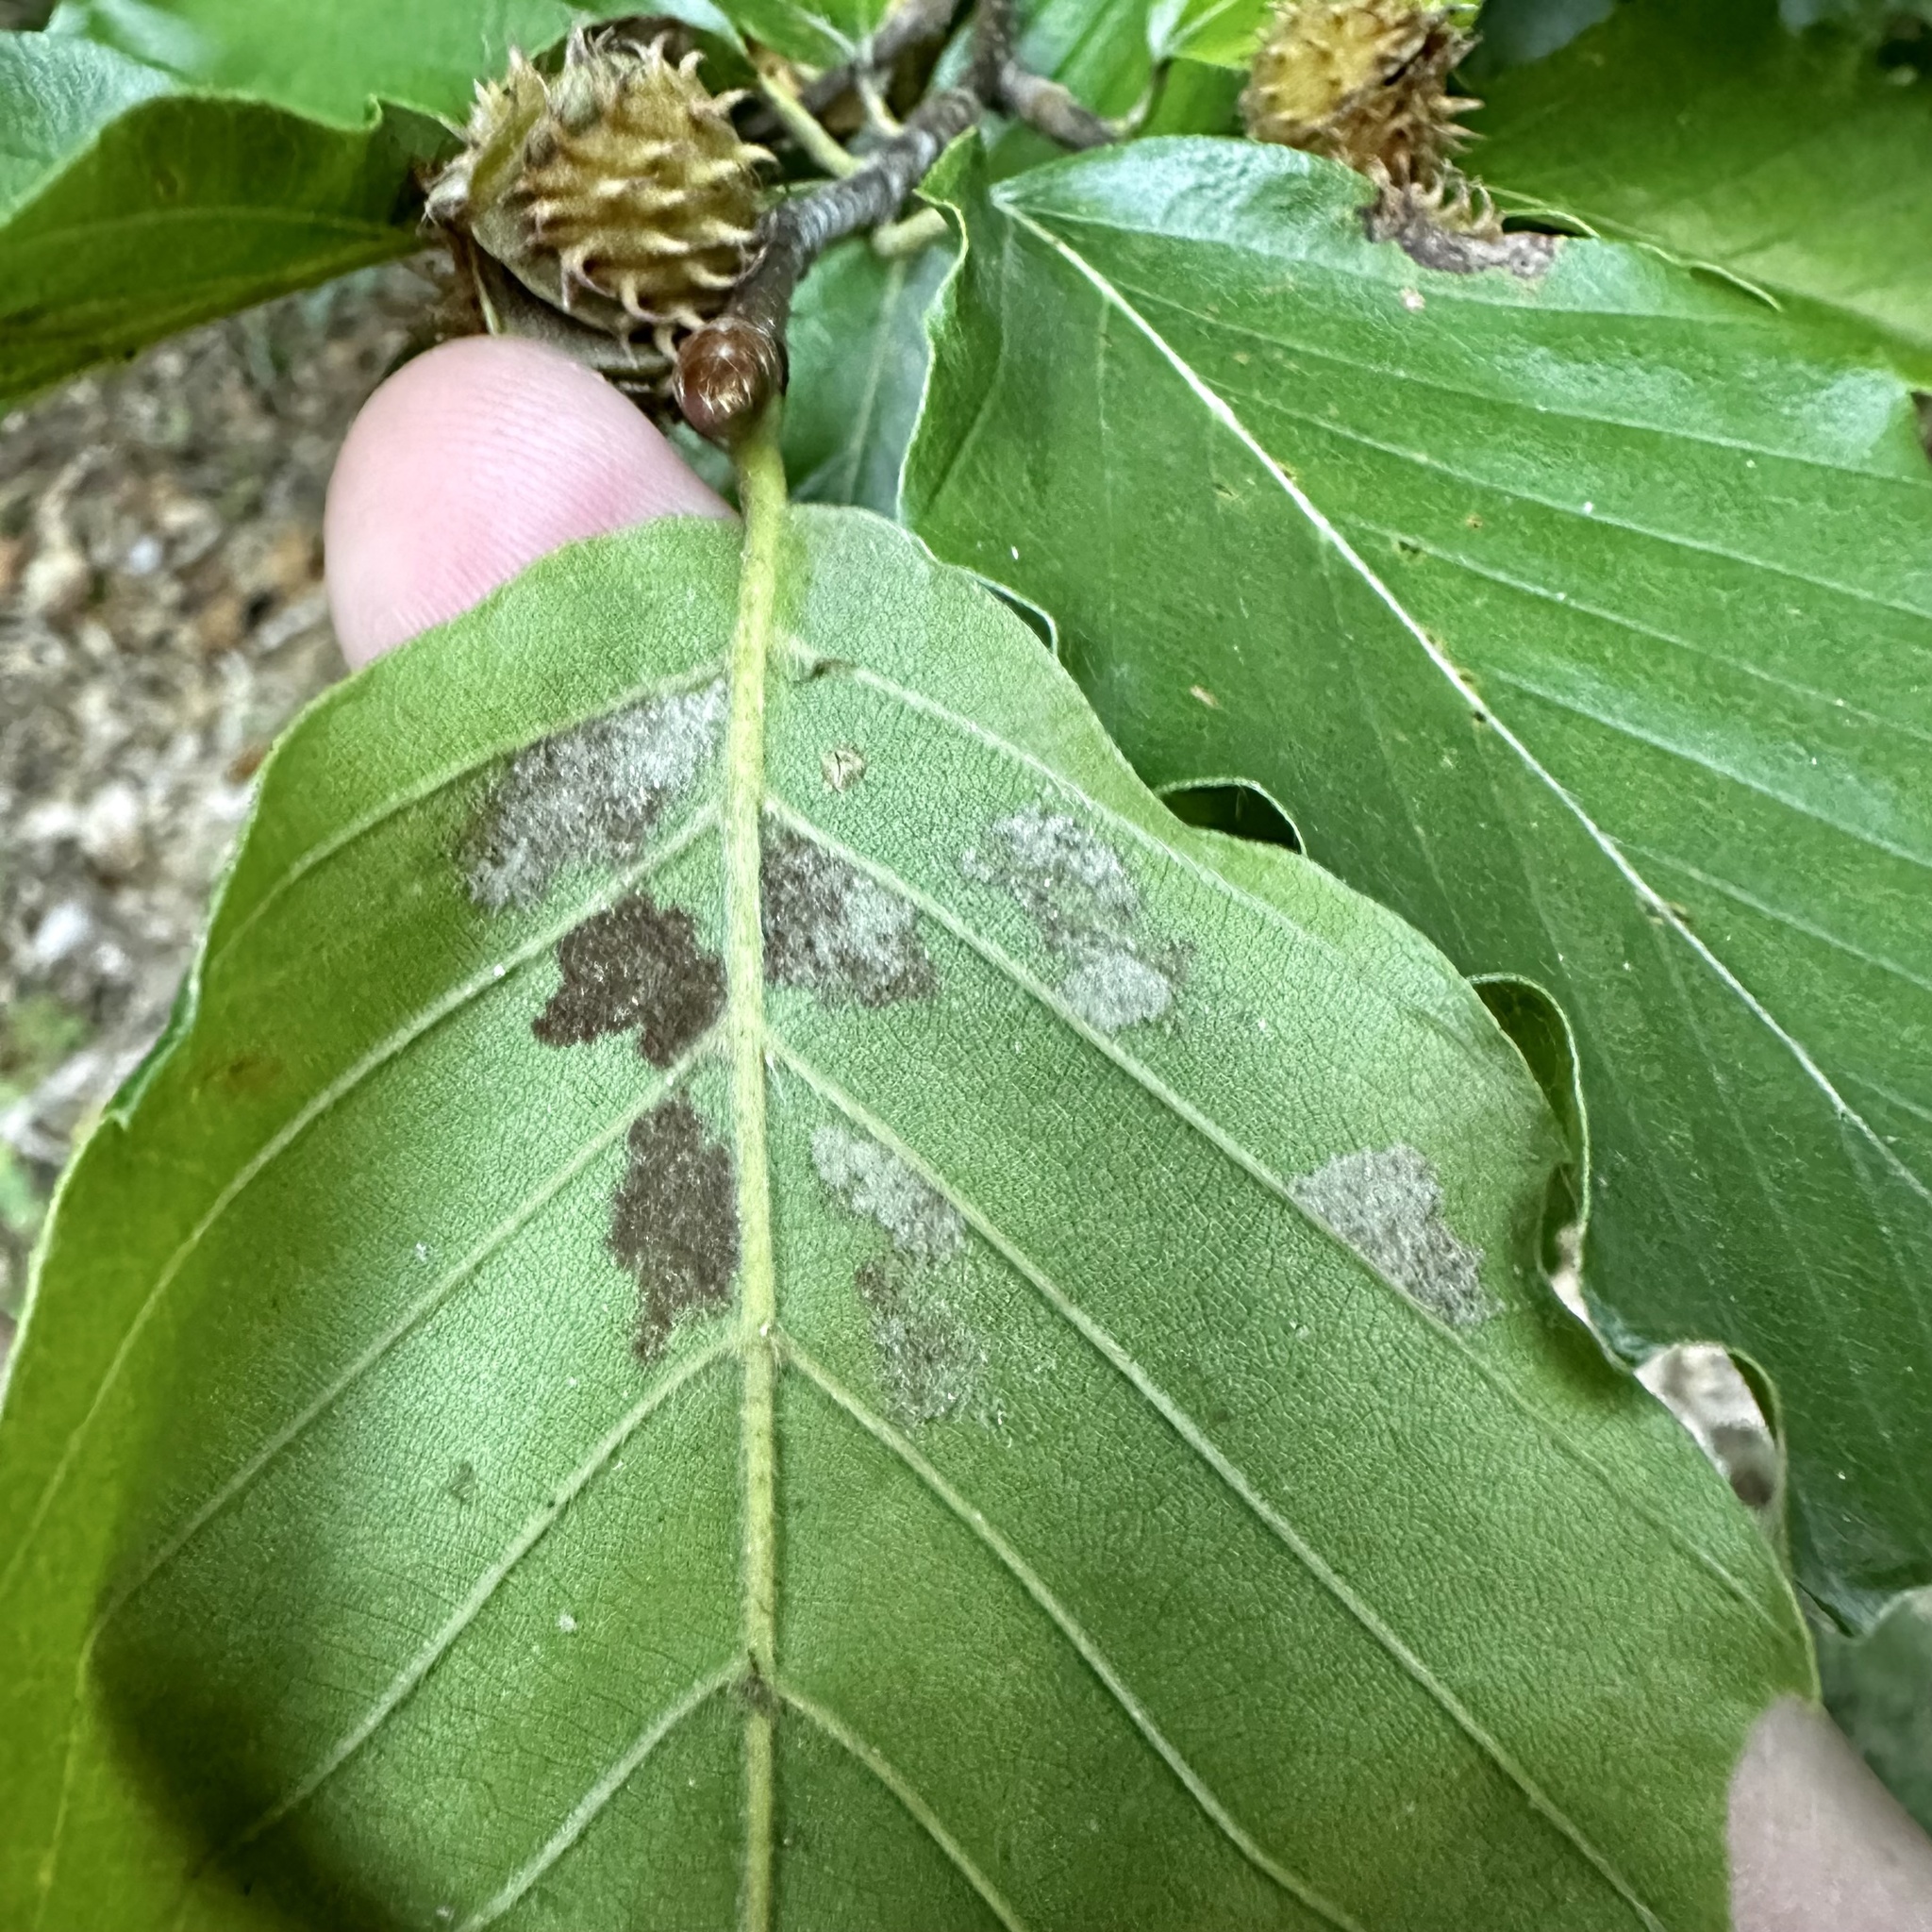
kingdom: Animalia
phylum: Arthropoda
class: Arachnida
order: Trombidiformes
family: Eriophyidae
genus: Acalitus
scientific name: Acalitus
